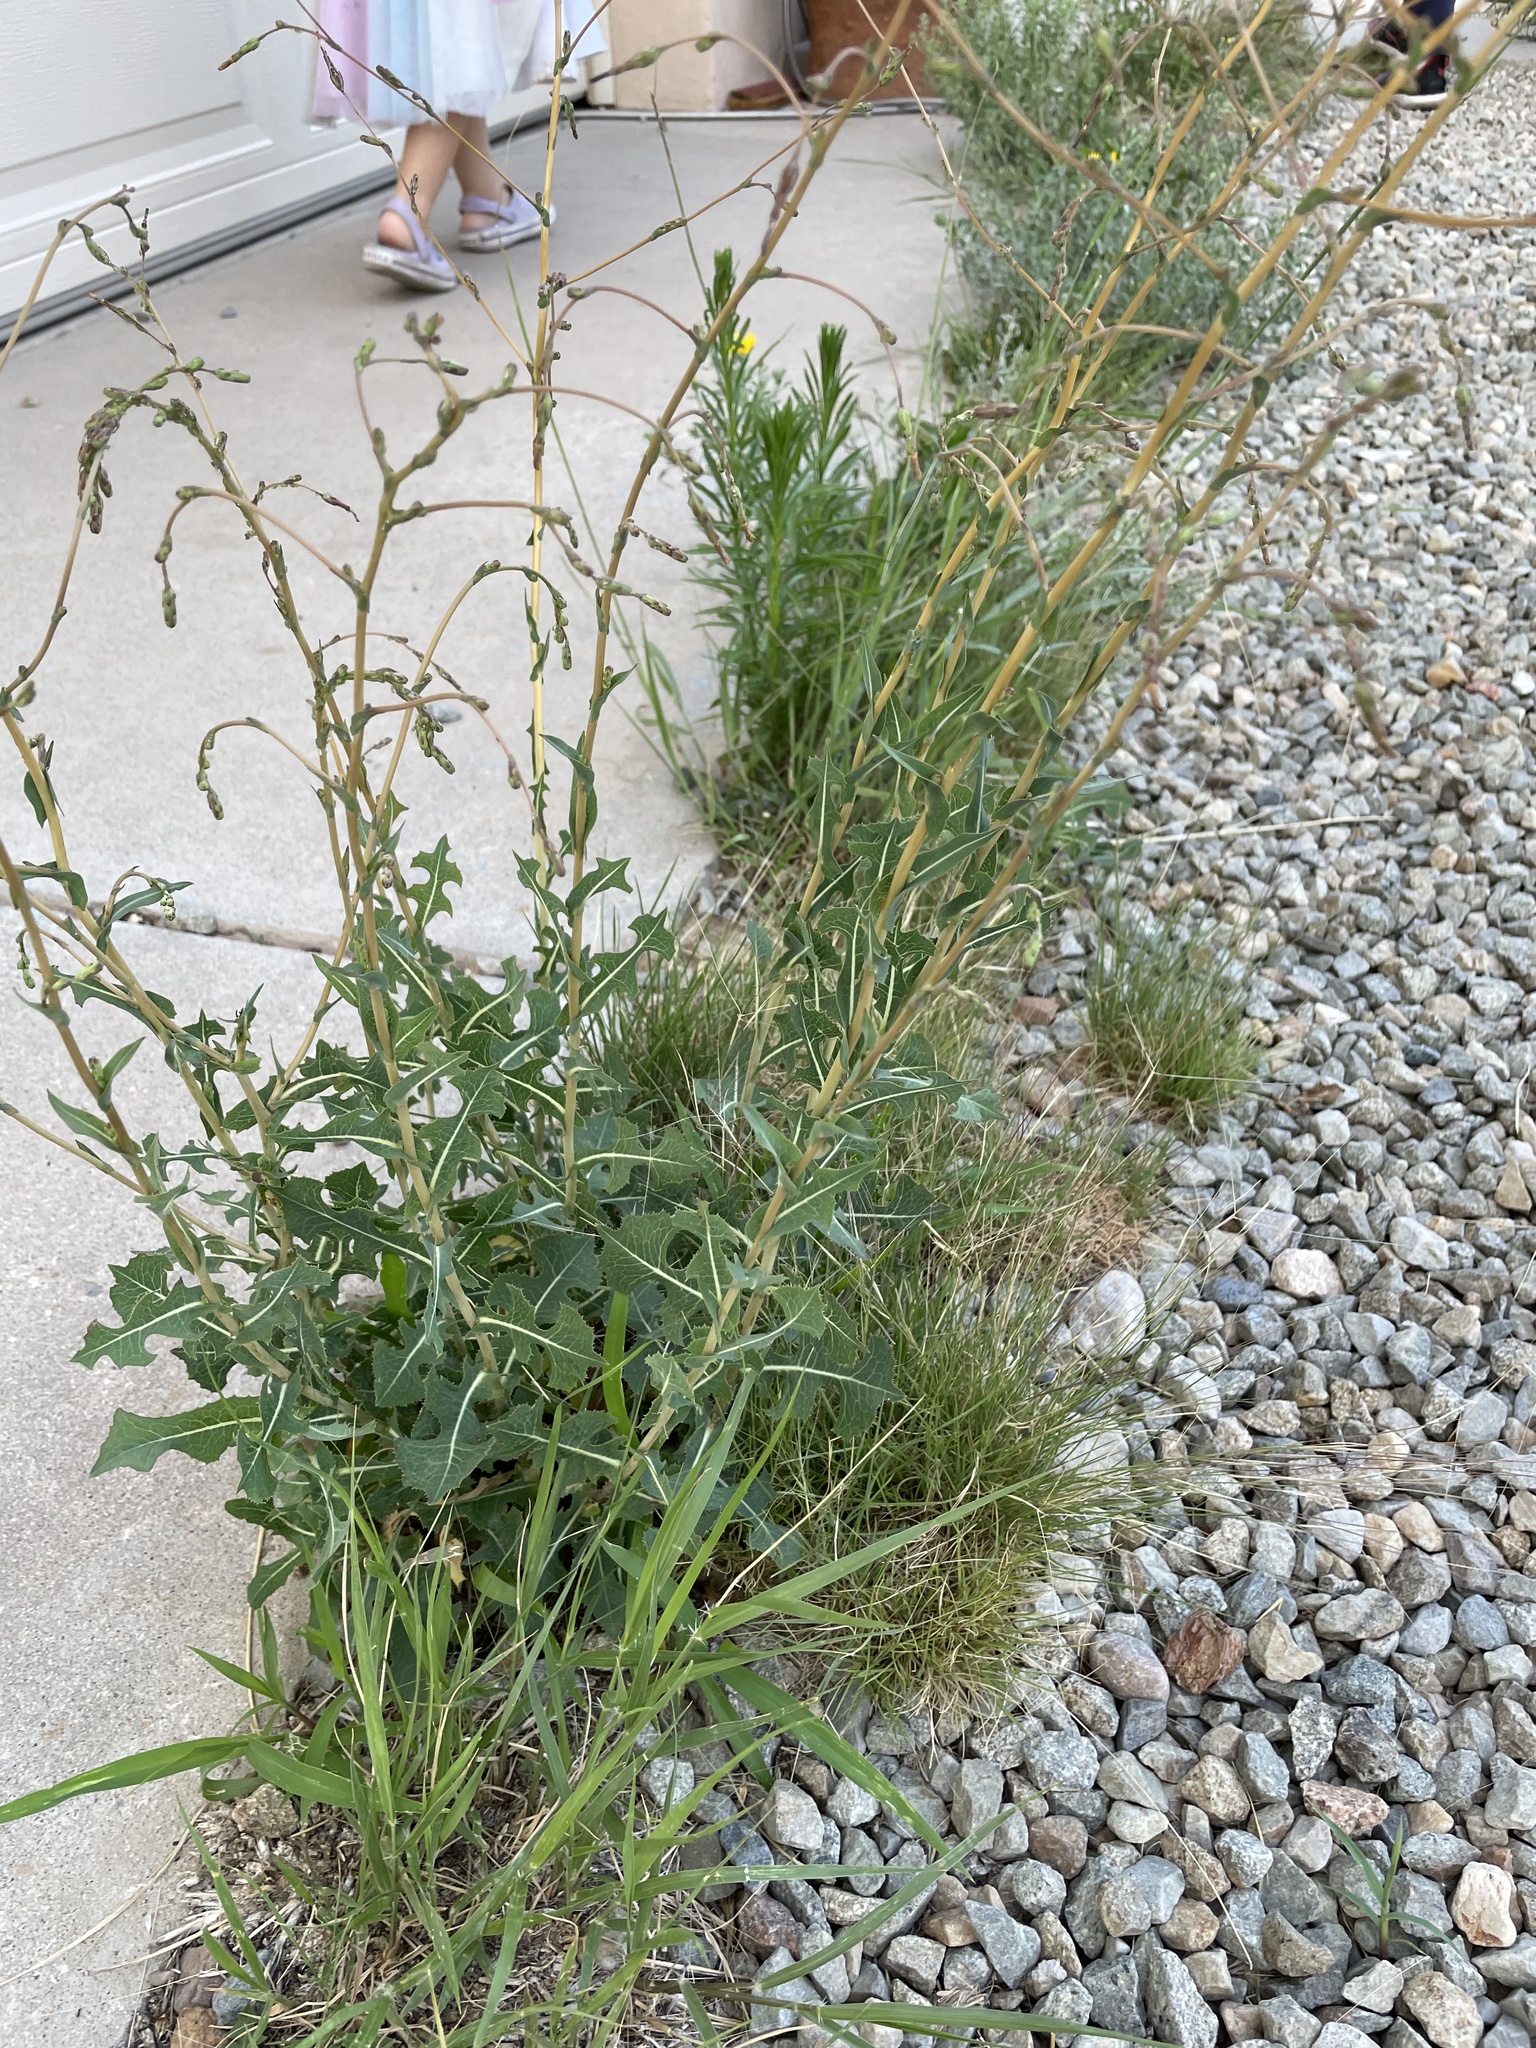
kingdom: Plantae
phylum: Tracheophyta
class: Magnoliopsida
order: Asterales
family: Asteraceae
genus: Lactuca
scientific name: Lactuca serriola
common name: Prickly lettuce
